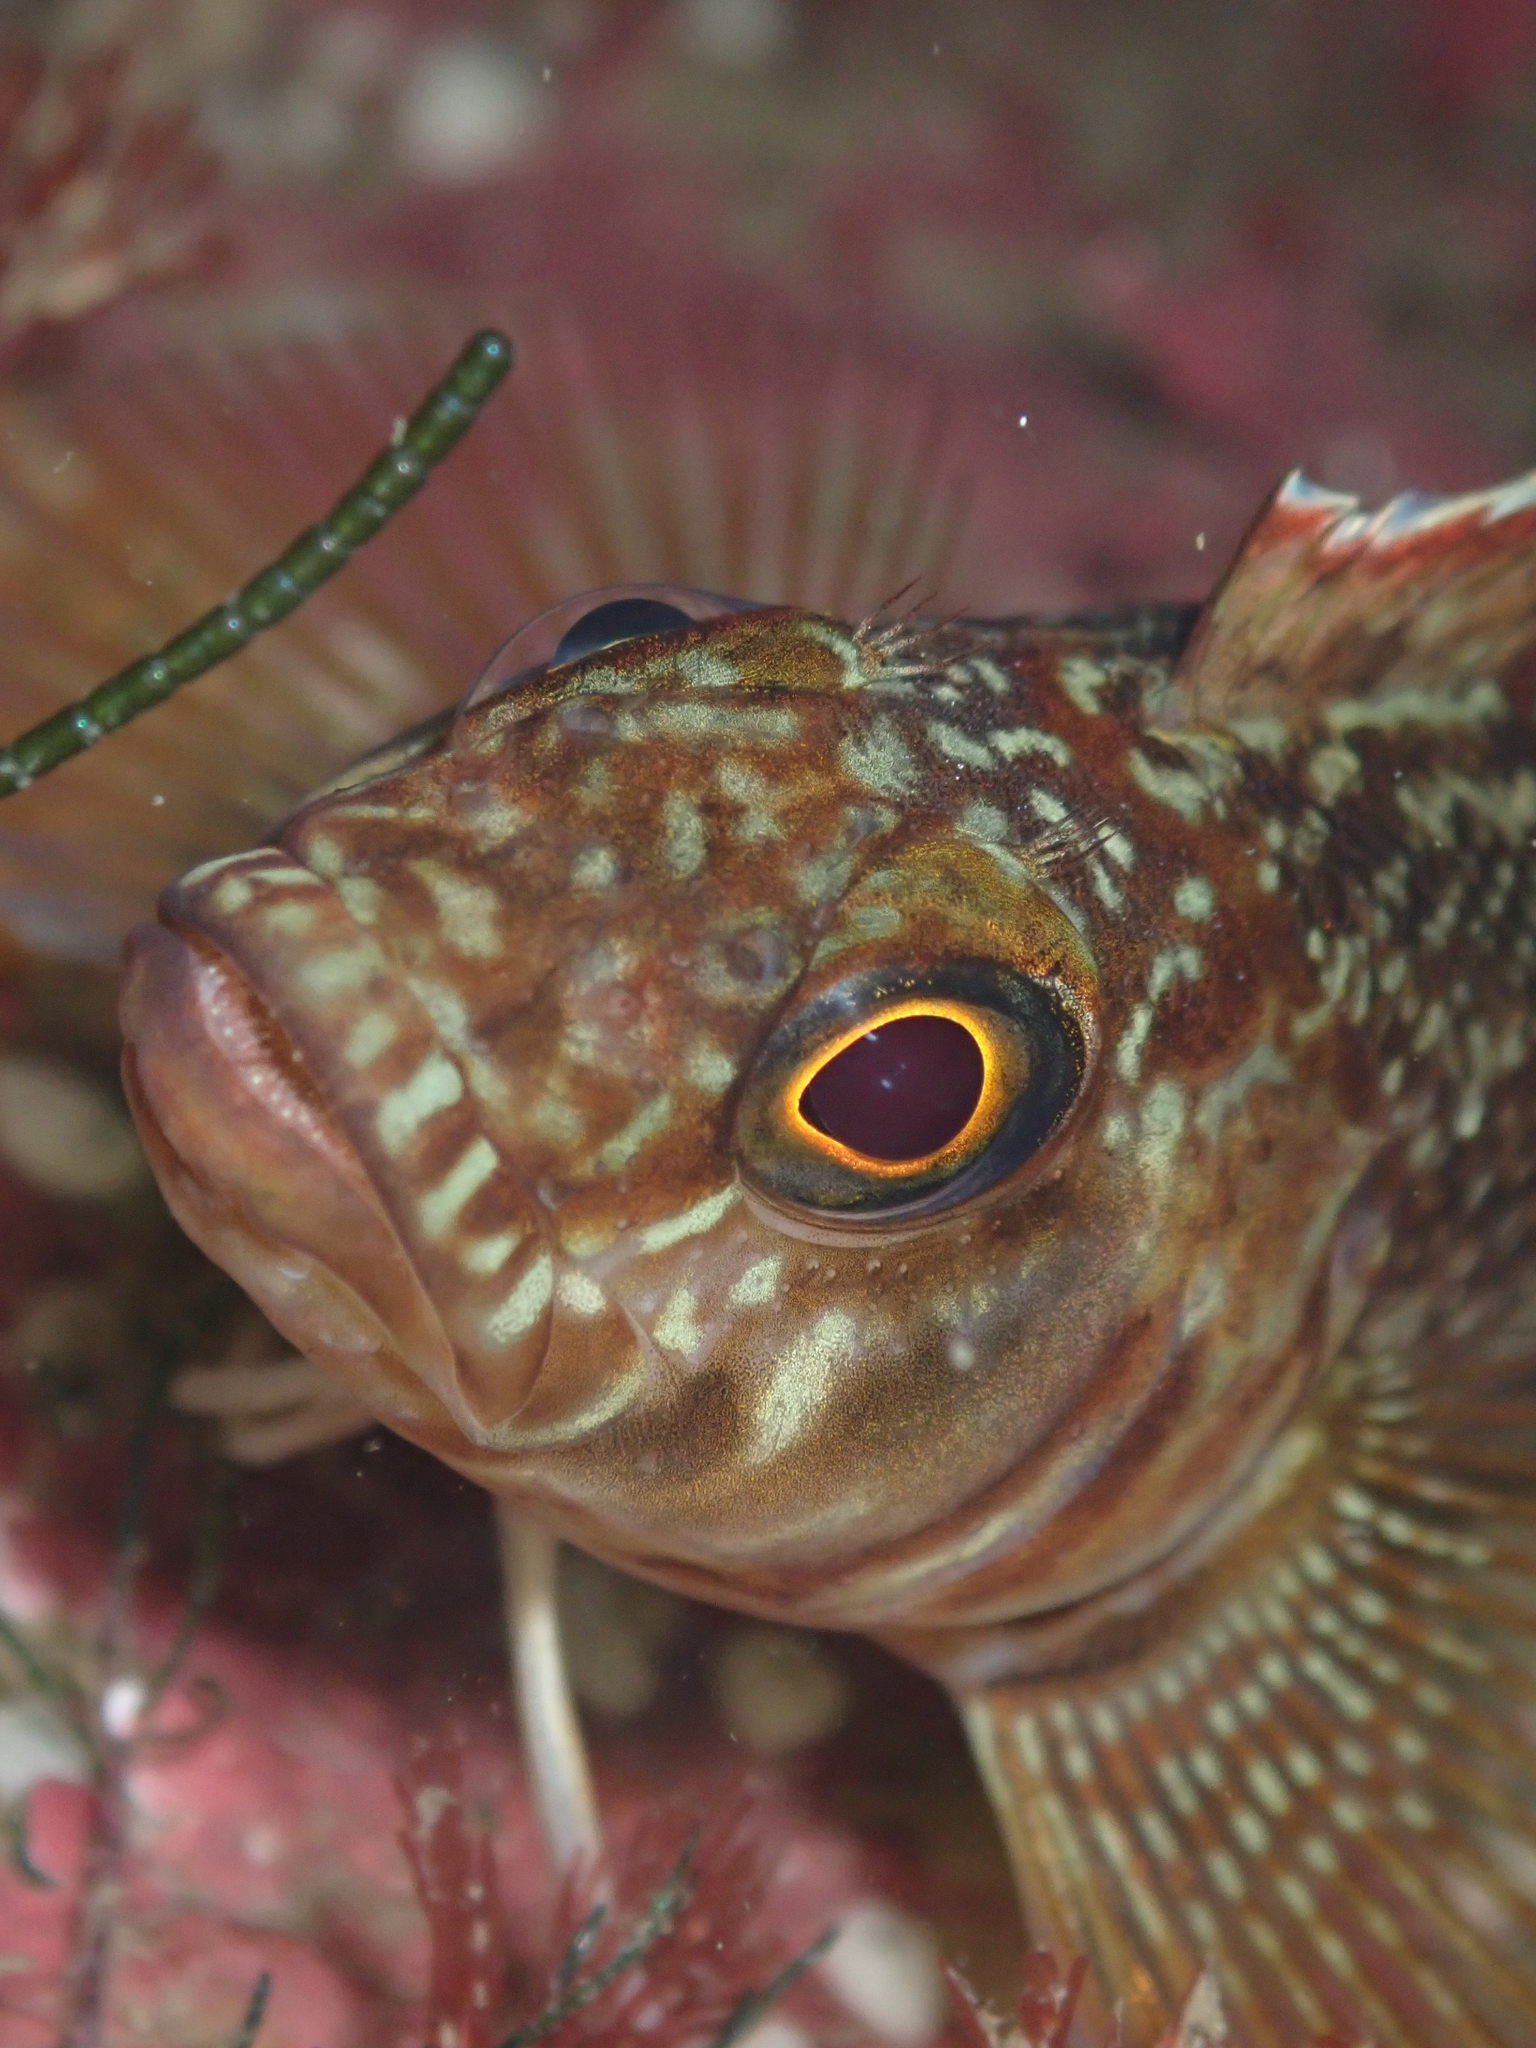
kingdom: Animalia
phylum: Chordata
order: Perciformes
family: Tripterygiidae
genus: Forsterygion
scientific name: Forsterygion varium
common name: Variable triplefin
